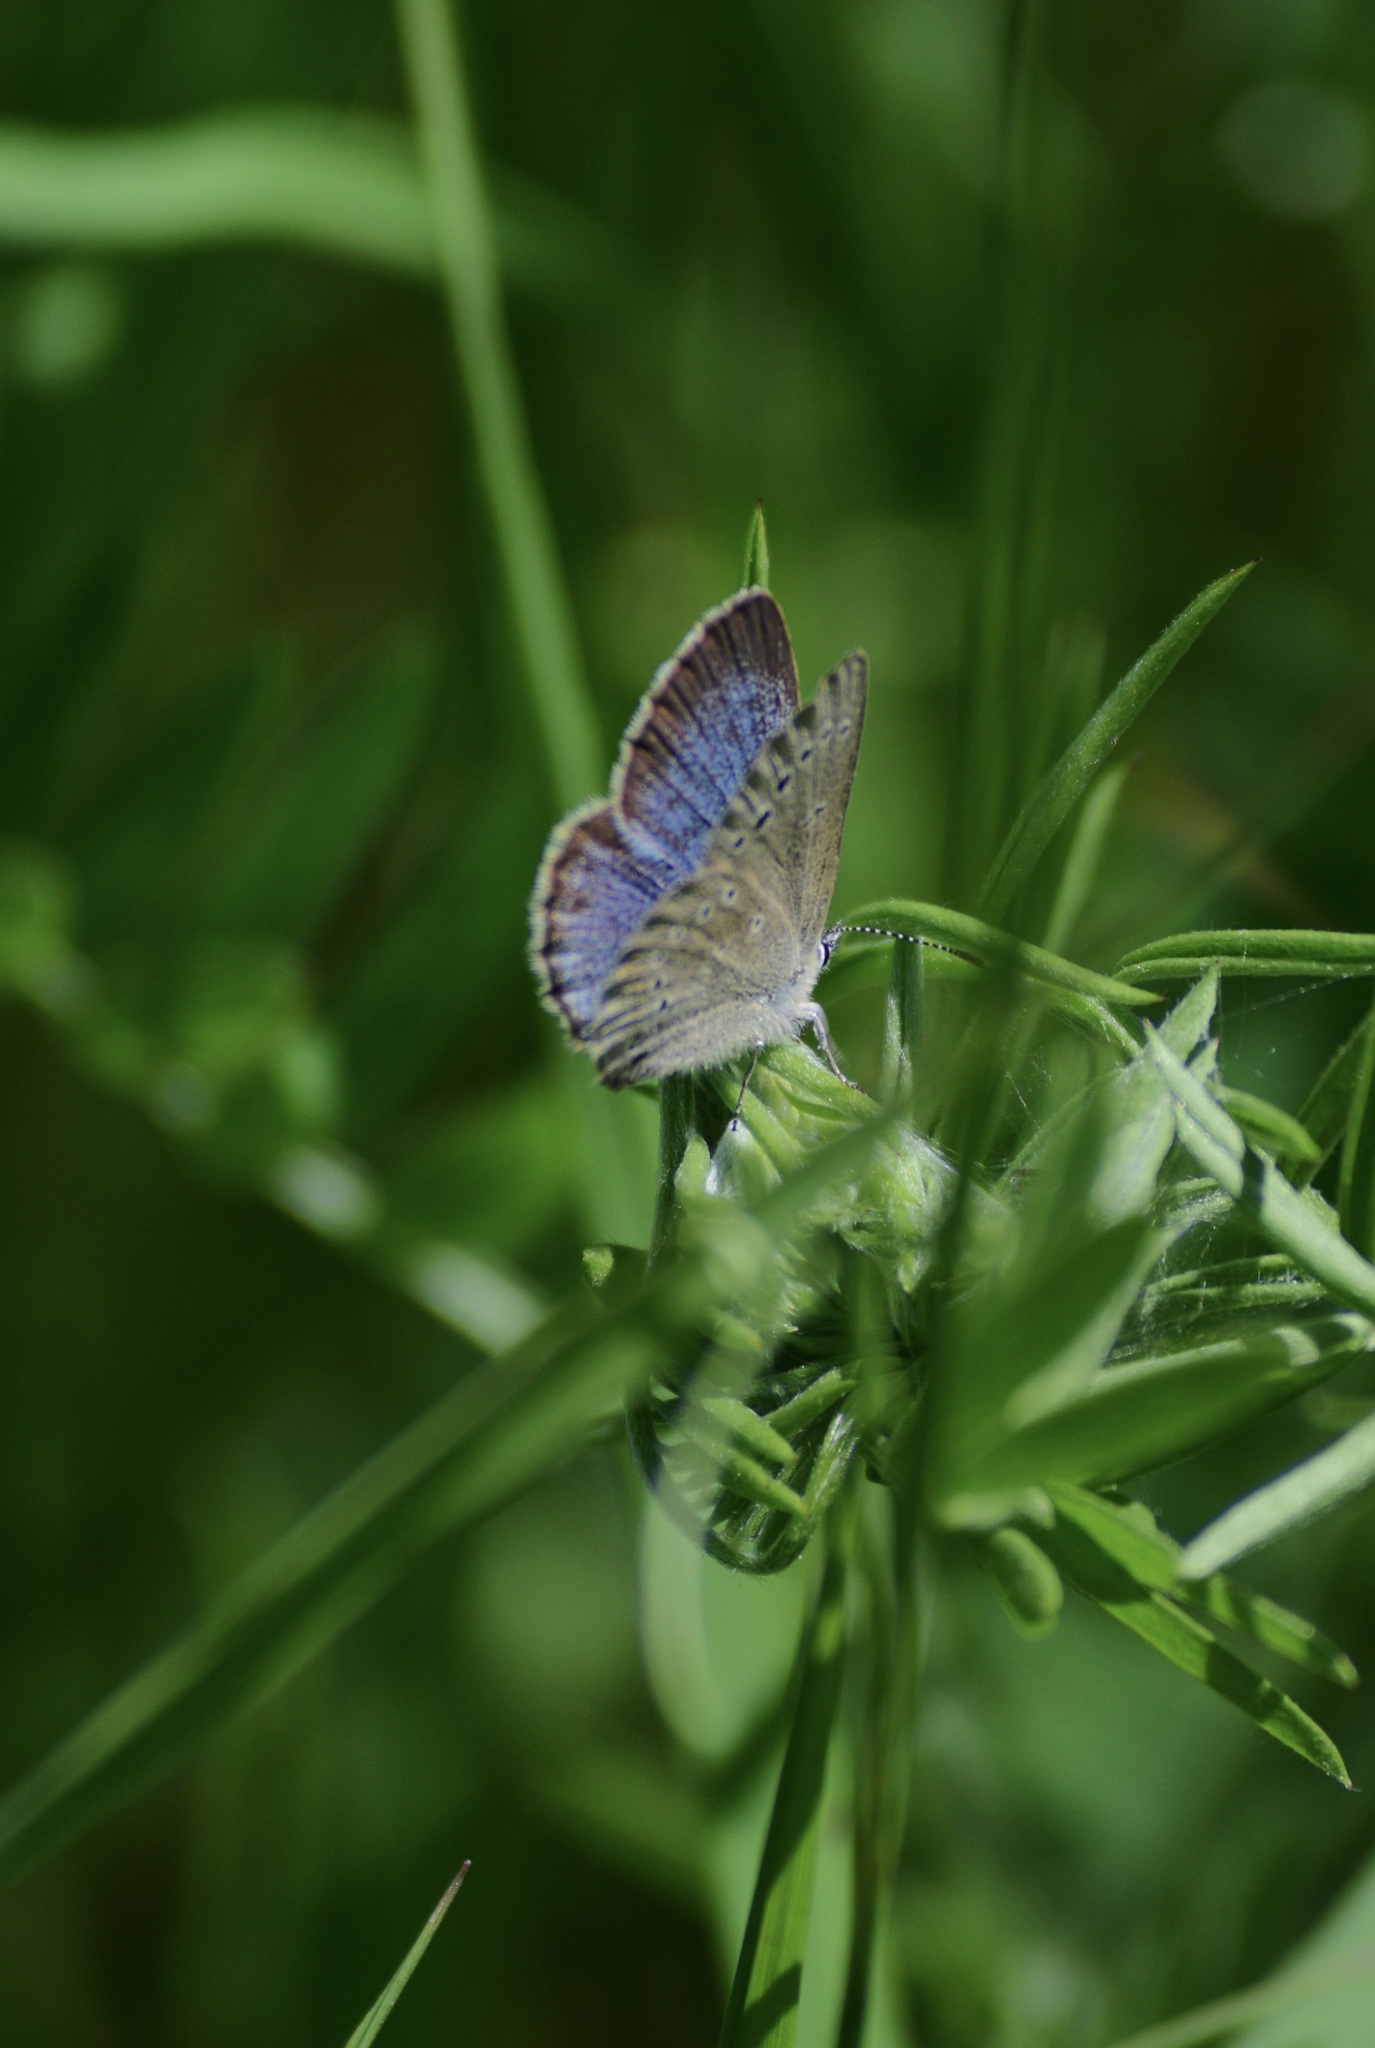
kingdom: Animalia
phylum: Arthropoda
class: Insecta
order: Lepidoptera
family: Lycaenidae
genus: Glaucopsyche
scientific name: Glaucopsyche lygdamus
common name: Silvery blue
